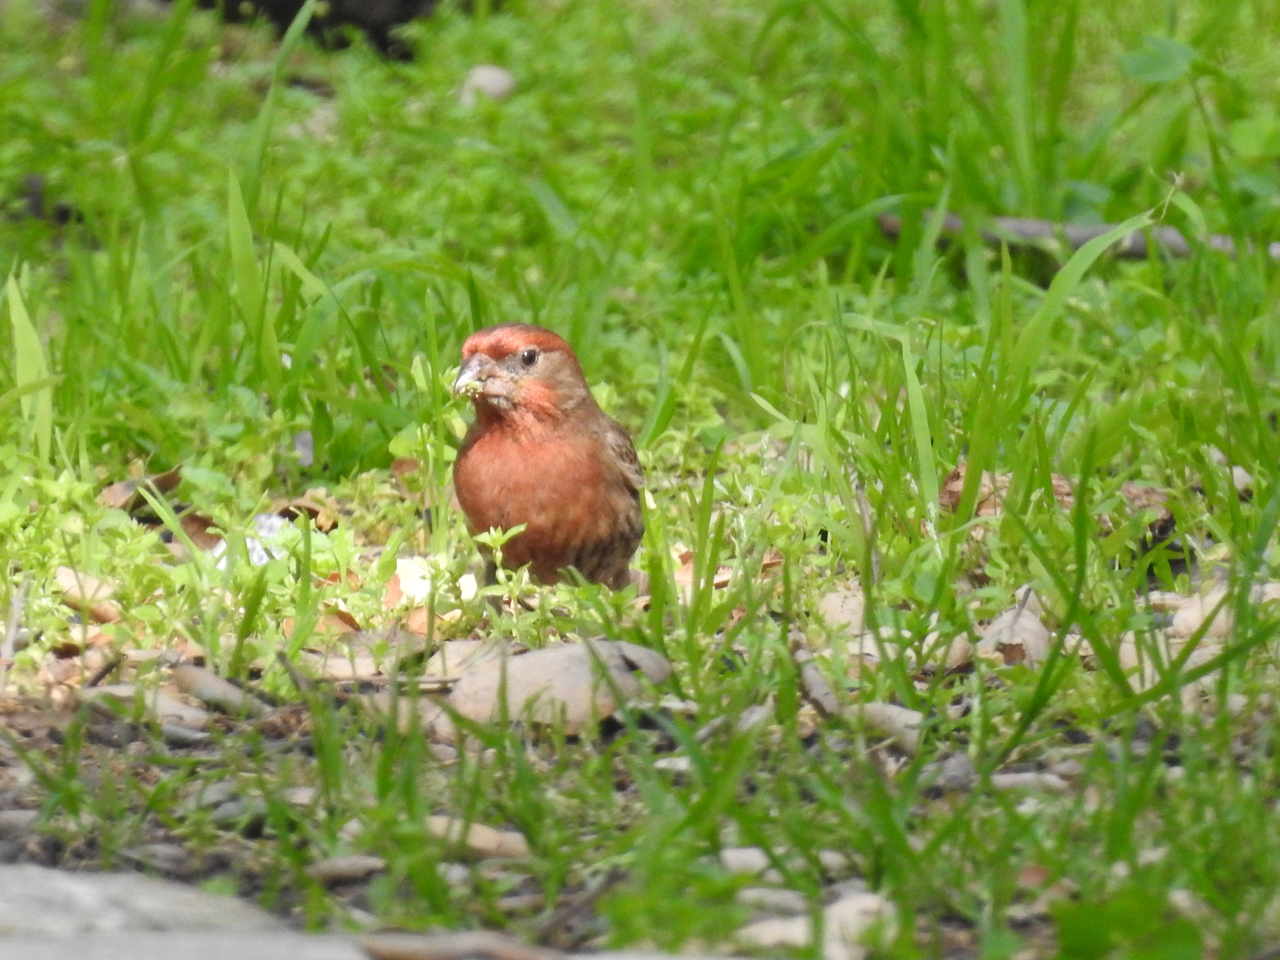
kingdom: Animalia
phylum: Chordata
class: Aves
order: Passeriformes
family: Fringillidae
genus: Haemorhous
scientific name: Haemorhous mexicanus
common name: House finch
